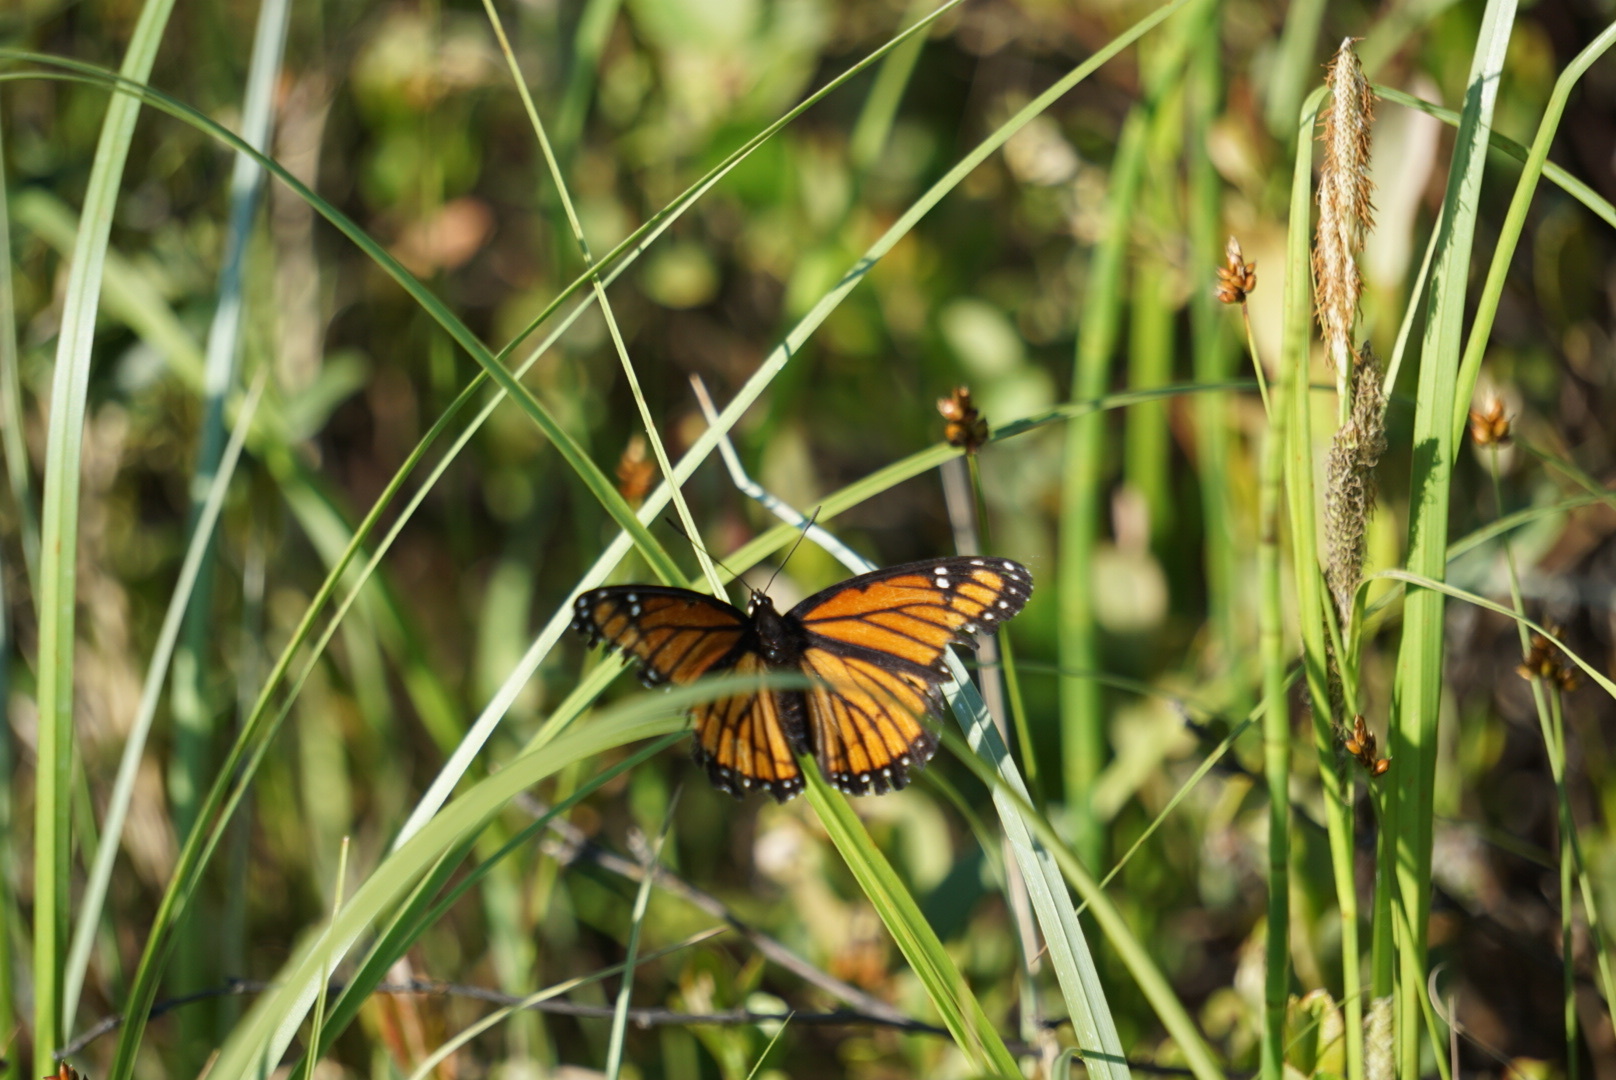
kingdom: Animalia
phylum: Arthropoda
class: Insecta
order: Lepidoptera
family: Nymphalidae
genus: Limenitis
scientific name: Limenitis archippus
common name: Viceroy
